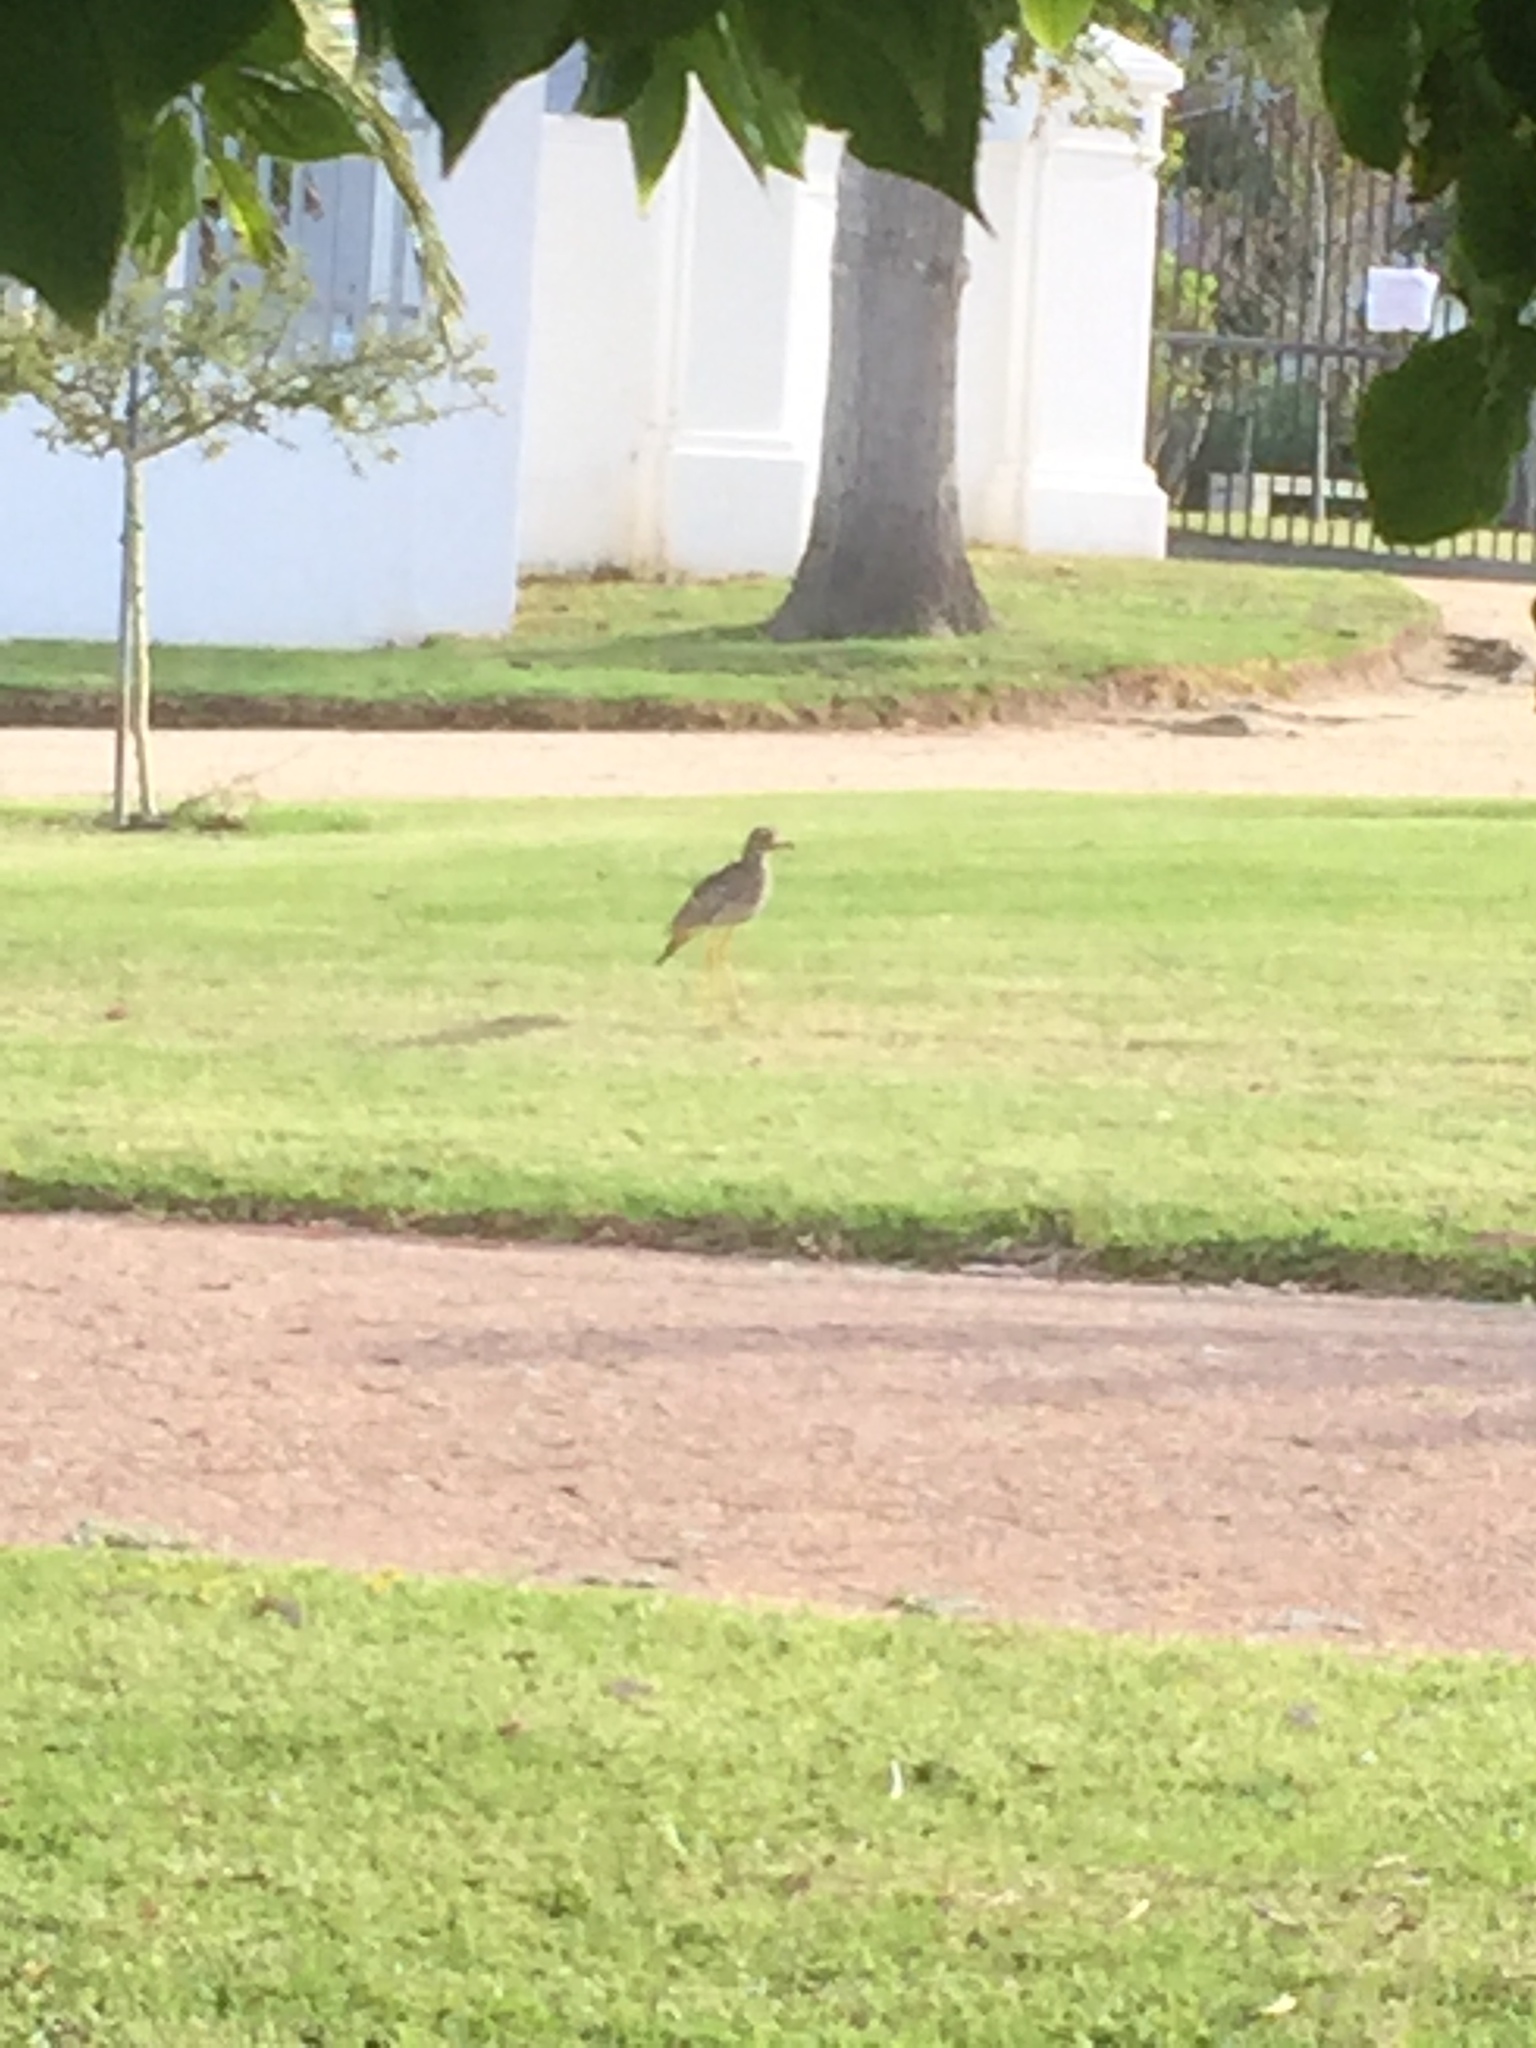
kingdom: Animalia
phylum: Chordata
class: Aves
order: Charadriiformes
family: Burhinidae
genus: Burhinus
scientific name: Burhinus capensis
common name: Spotted thick-knee
